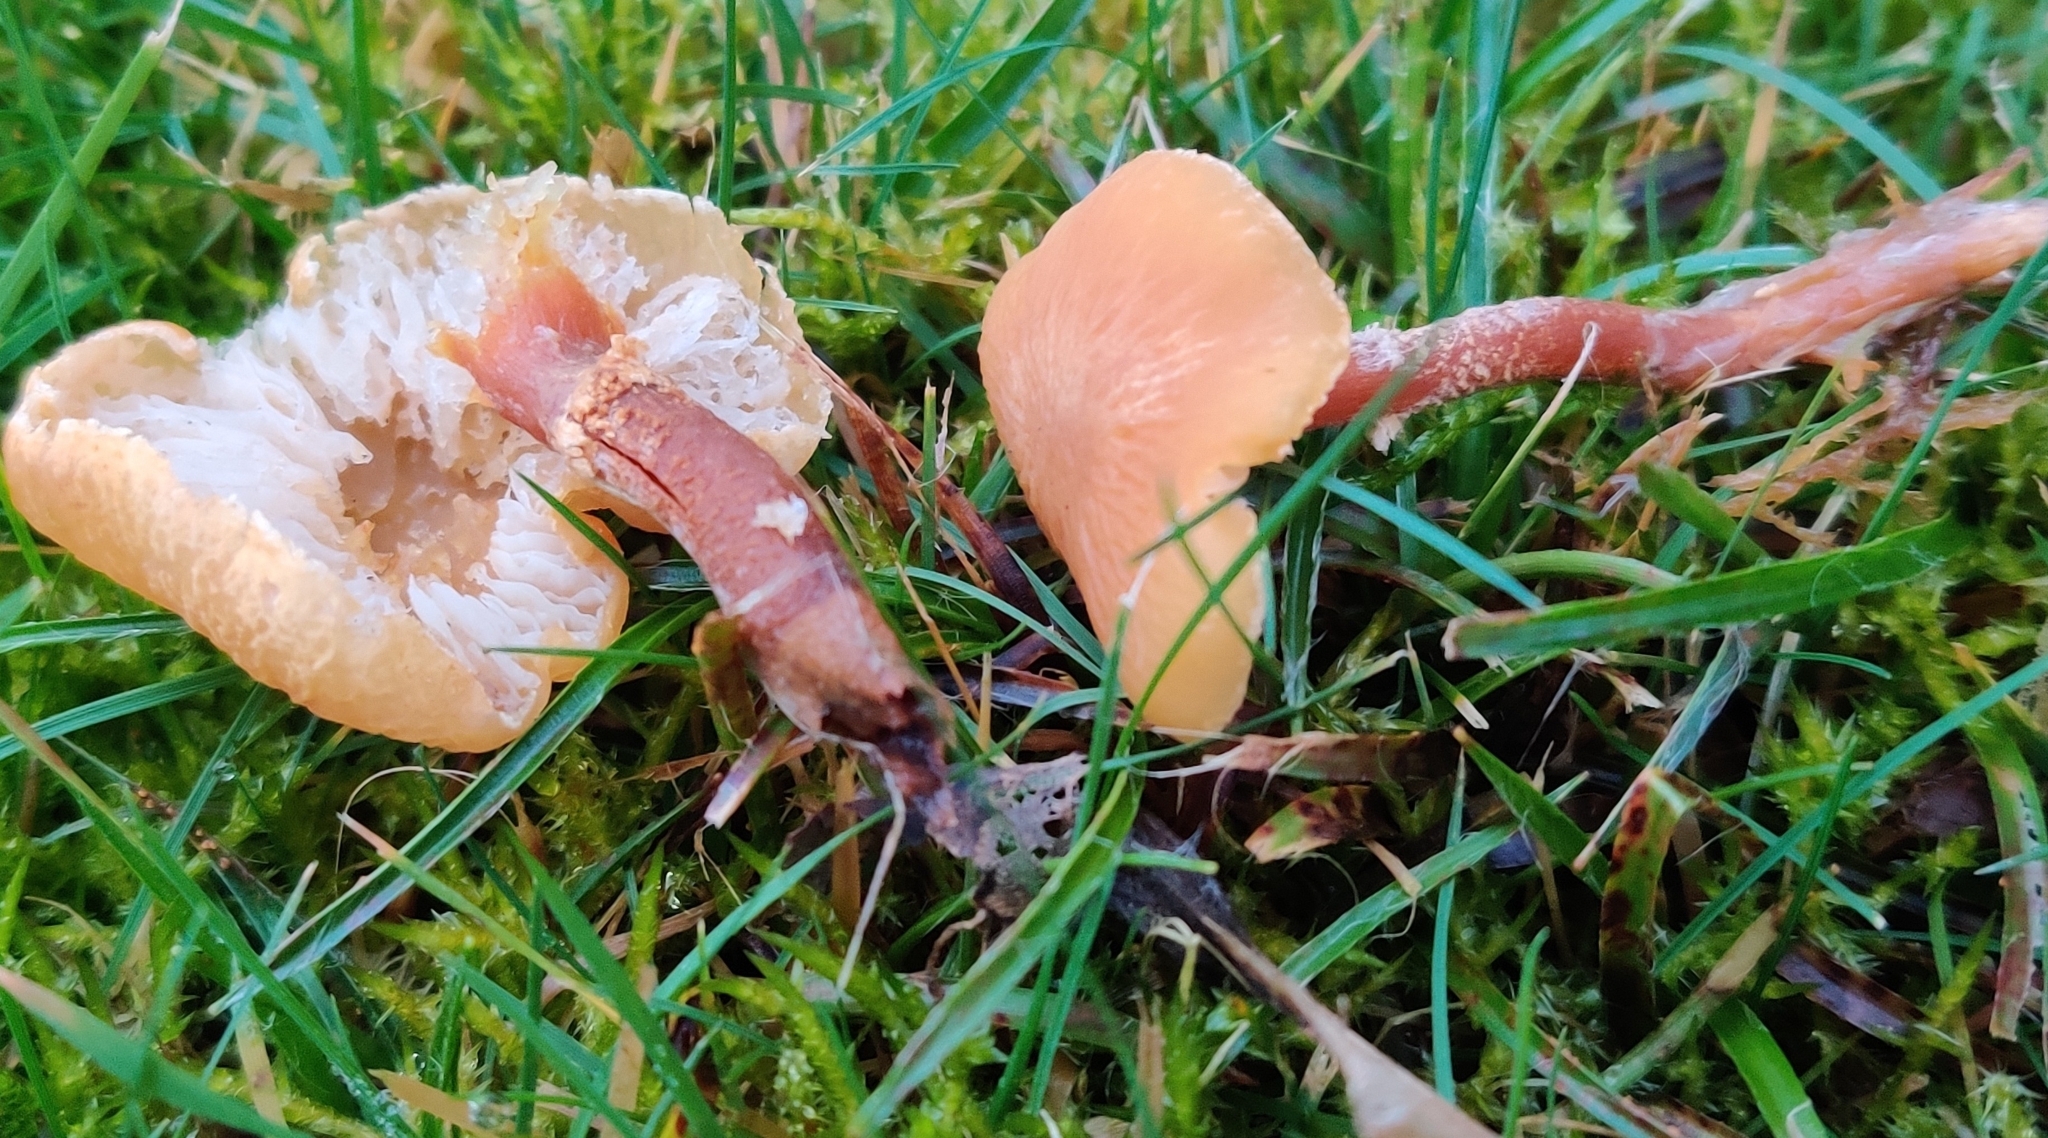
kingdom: Fungi
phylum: Basidiomycota
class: Agaricomycetes
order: Agaricales
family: Tricholomataceae
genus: Cystoderma
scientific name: Cystoderma amianthinum
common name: Earthy powdercap
